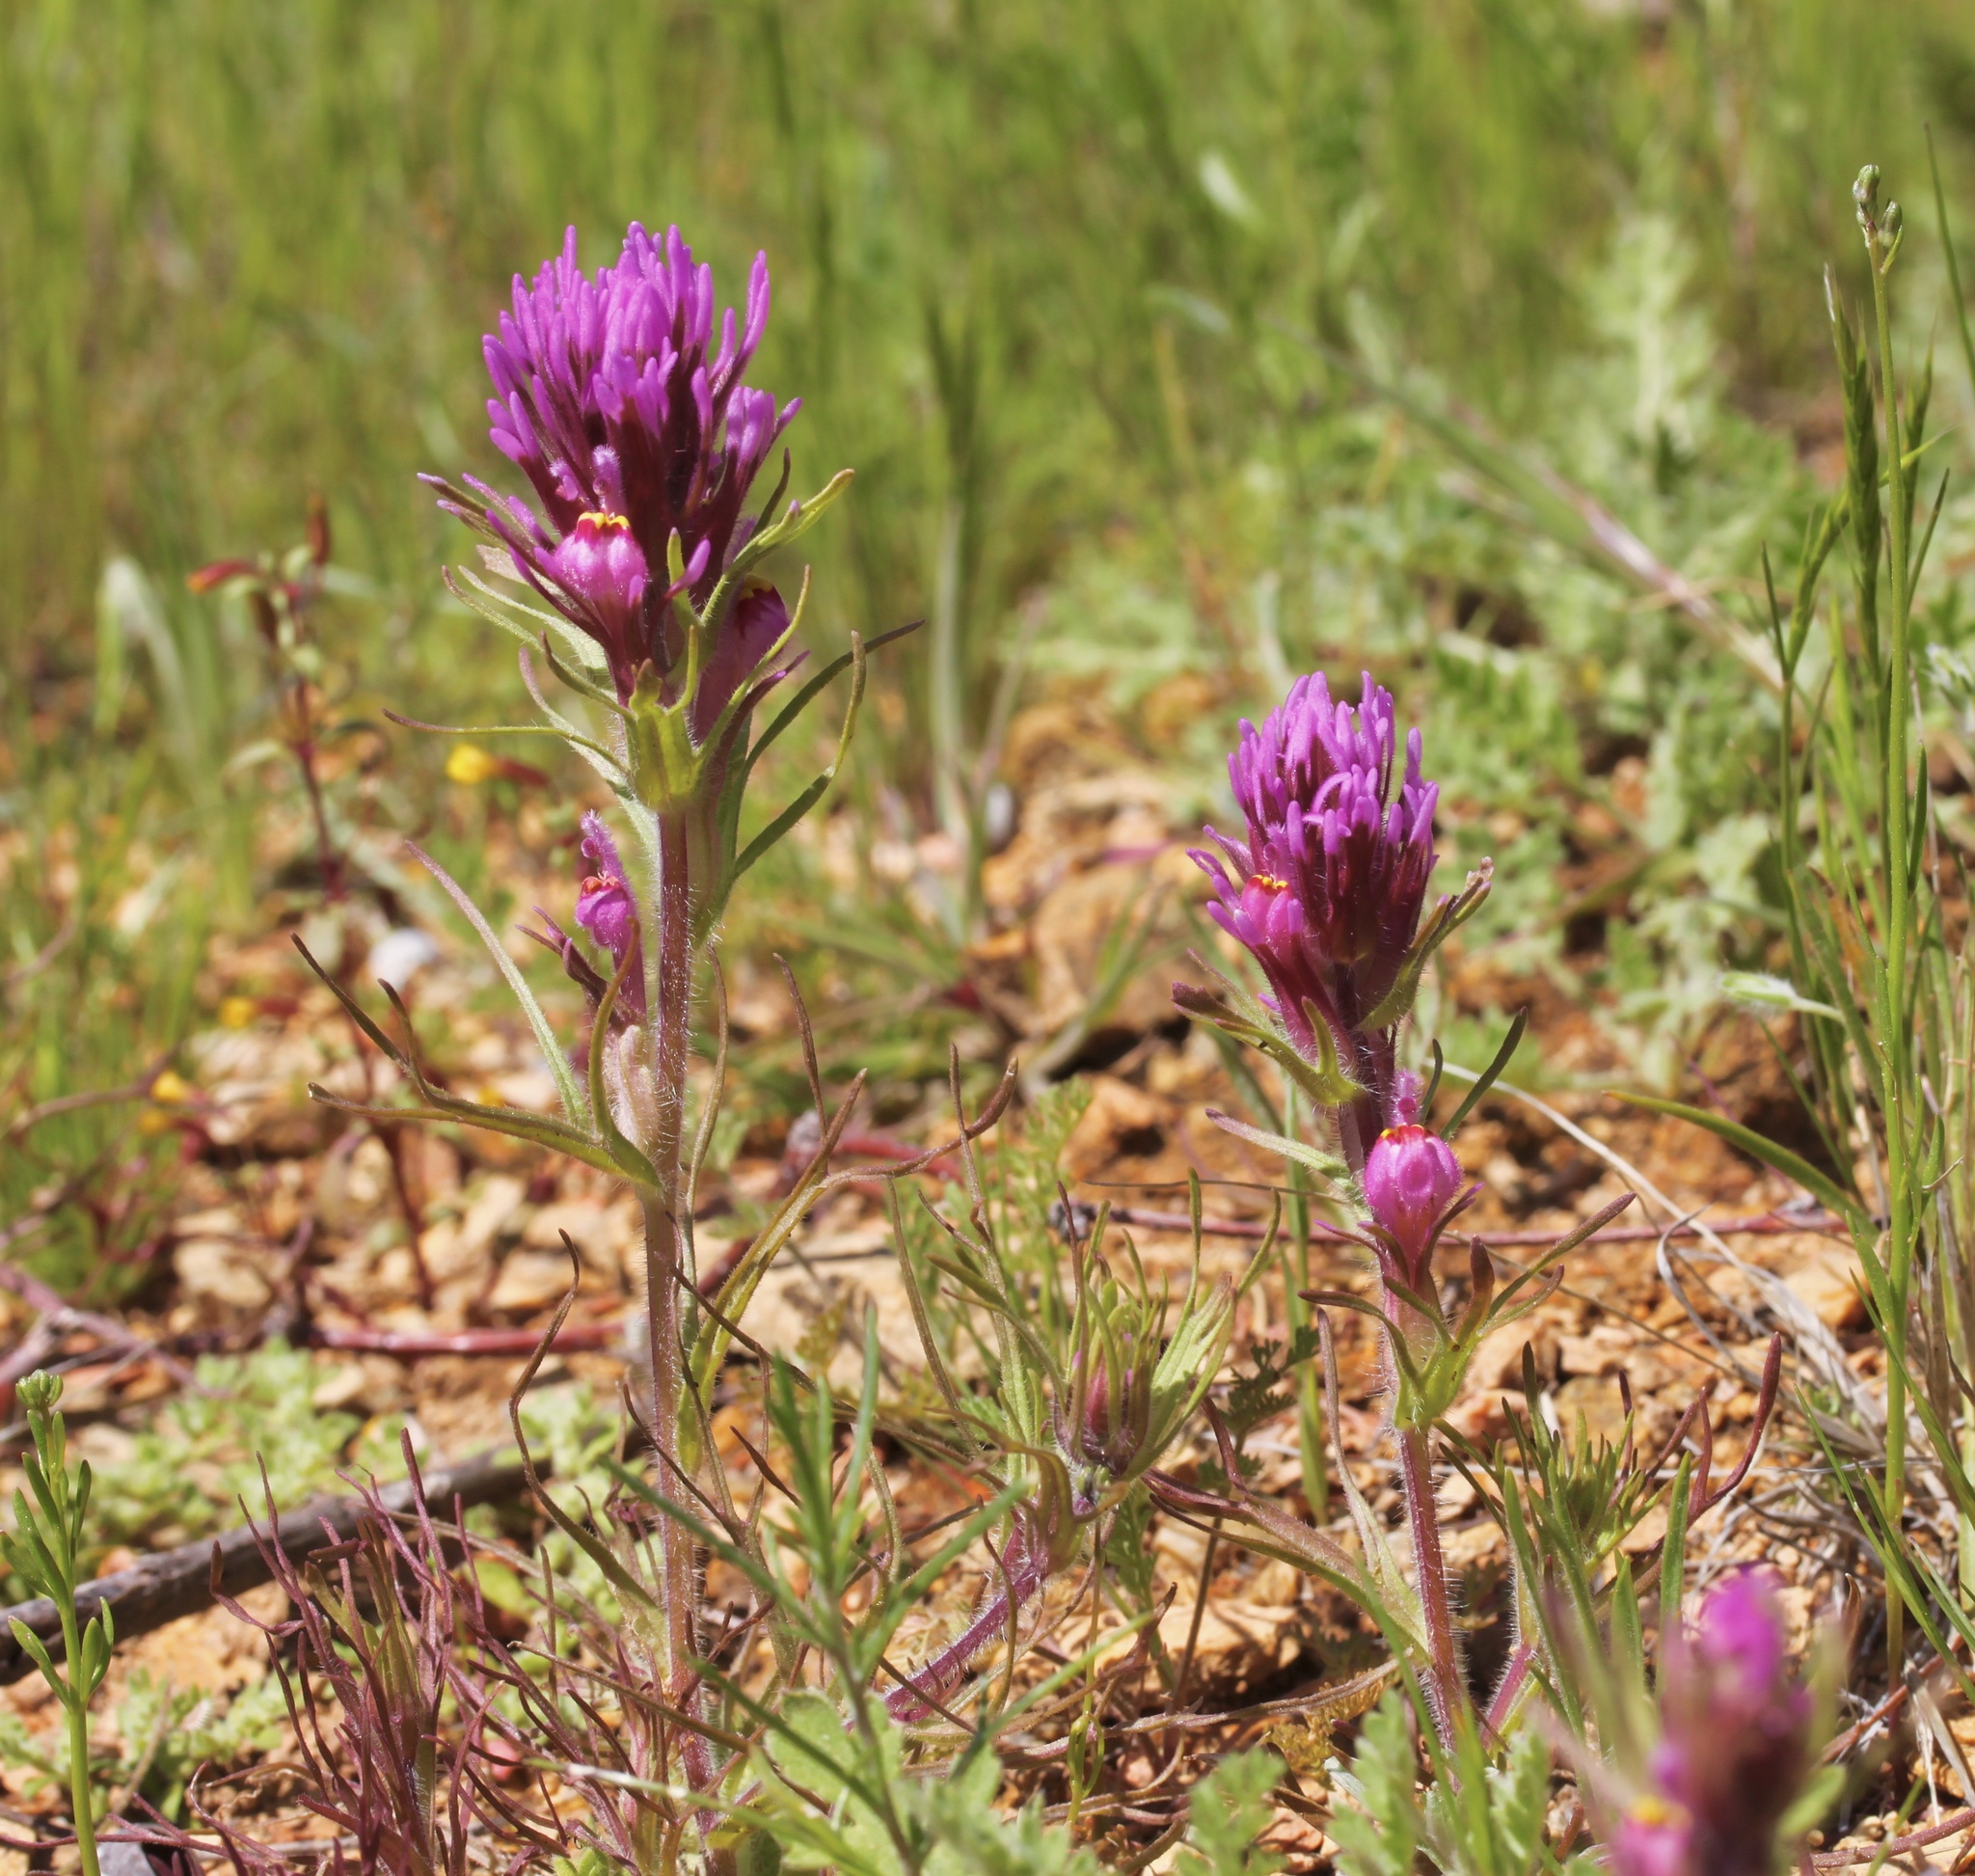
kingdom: Plantae
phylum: Tracheophyta
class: Magnoliopsida
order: Lamiales
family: Orobanchaceae
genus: Castilleja
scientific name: Castilleja exserta
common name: Purple owl-clover
